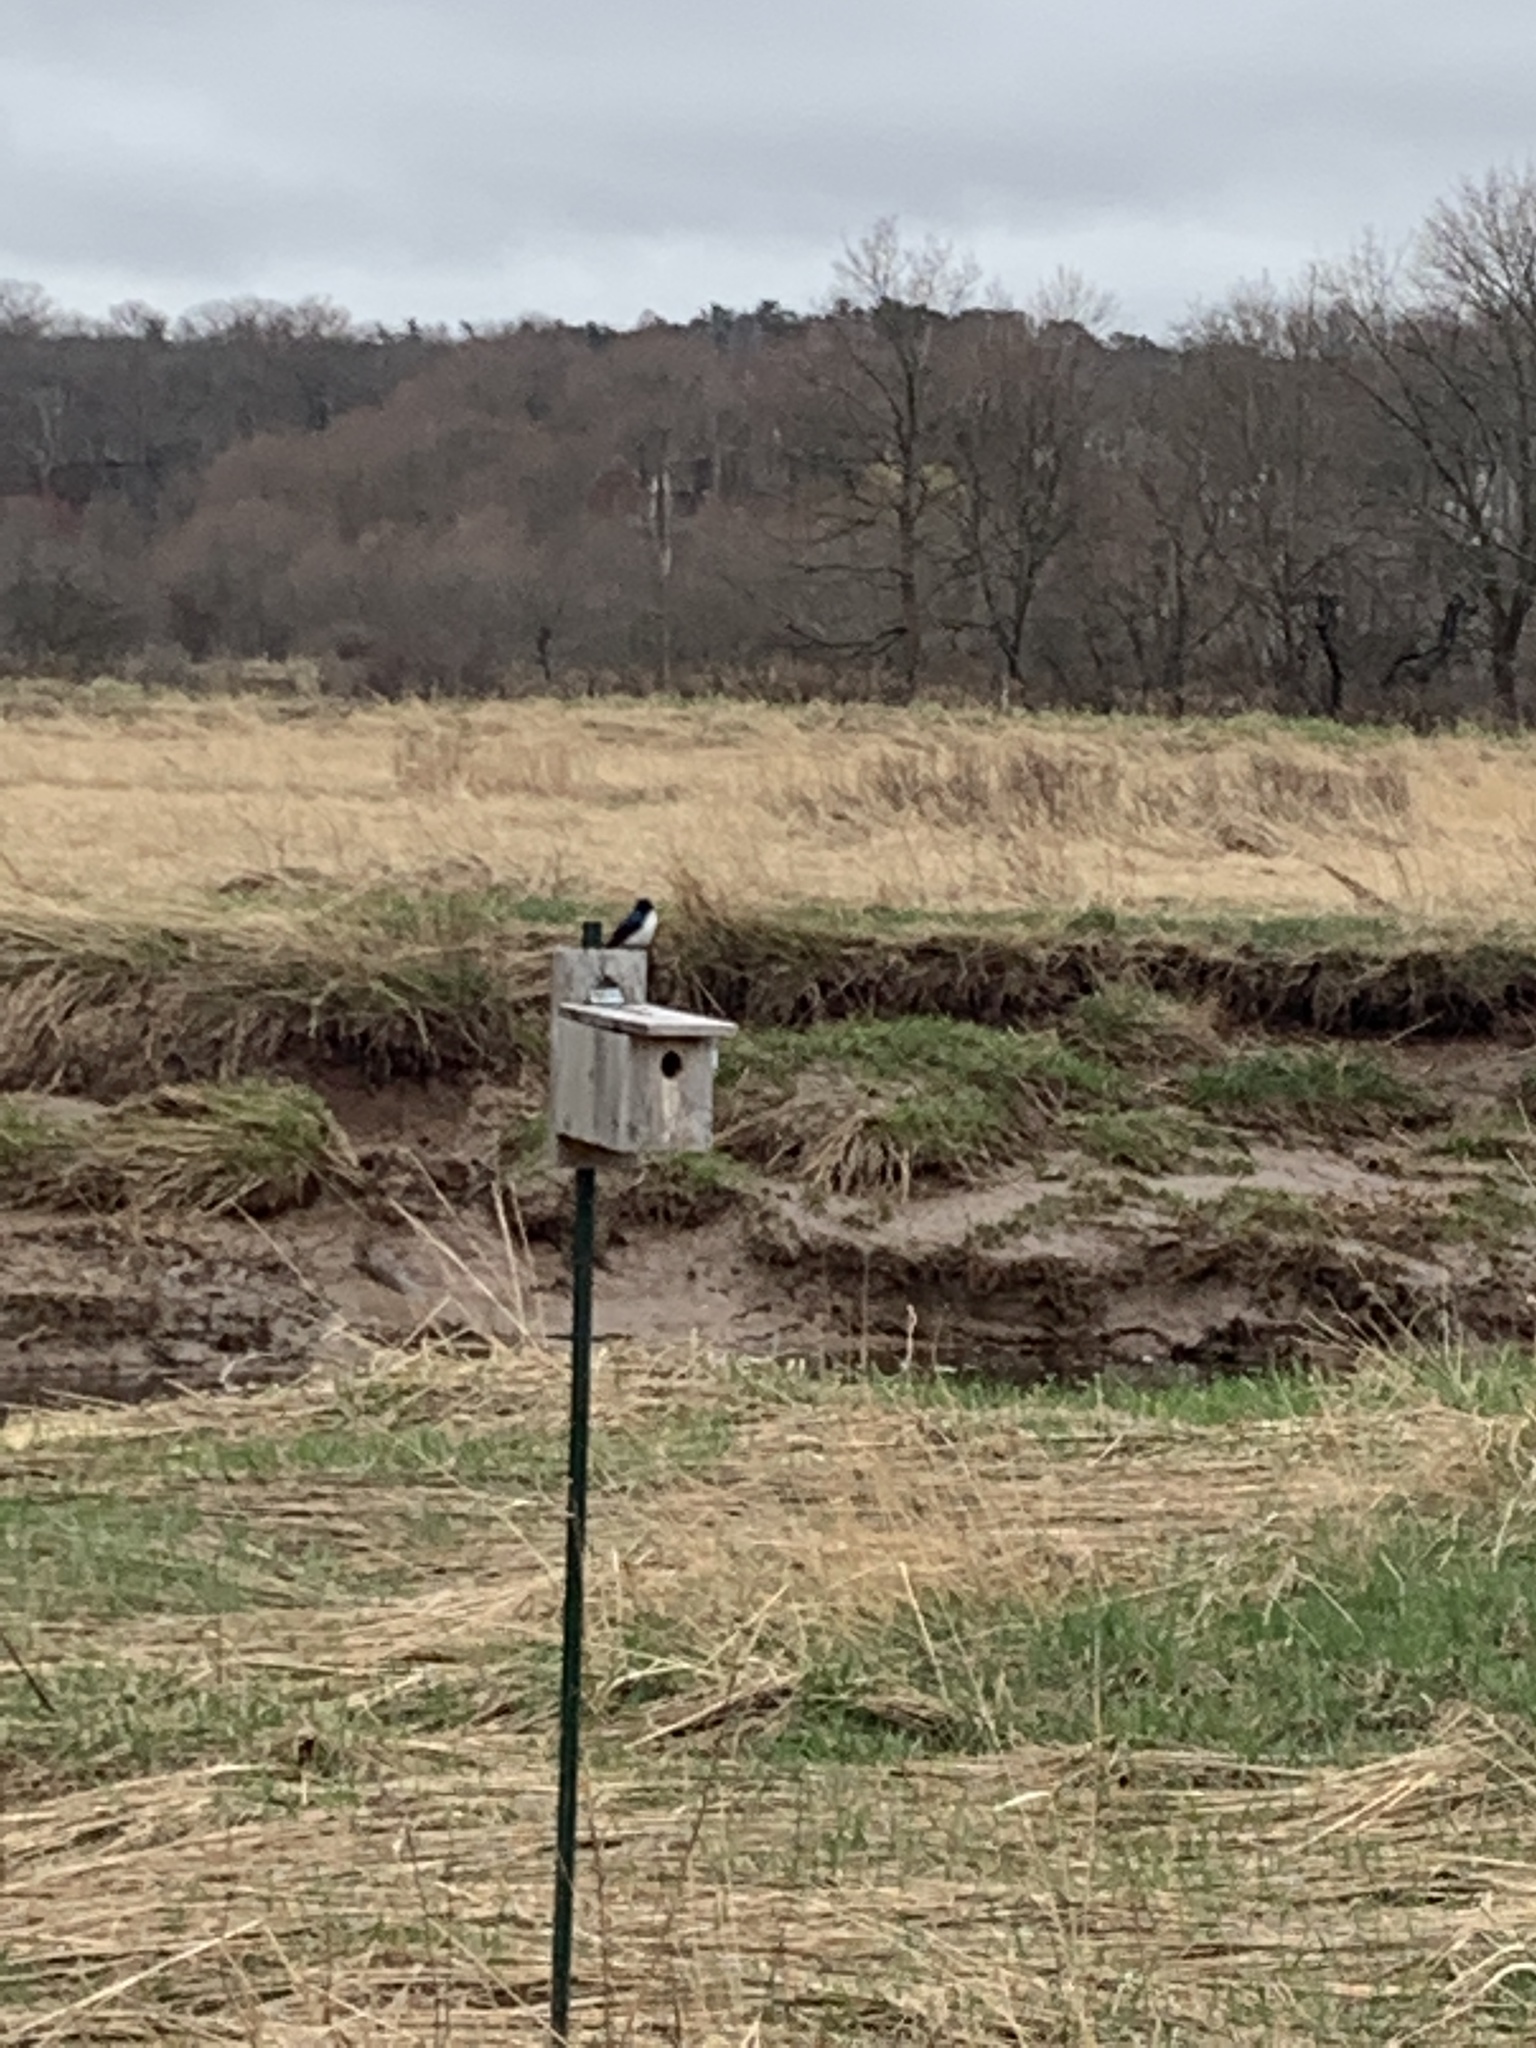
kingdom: Animalia
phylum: Chordata
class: Aves
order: Passeriformes
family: Hirundinidae
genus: Tachycineta
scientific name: Tachycineta bicolor
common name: Tree swallow
